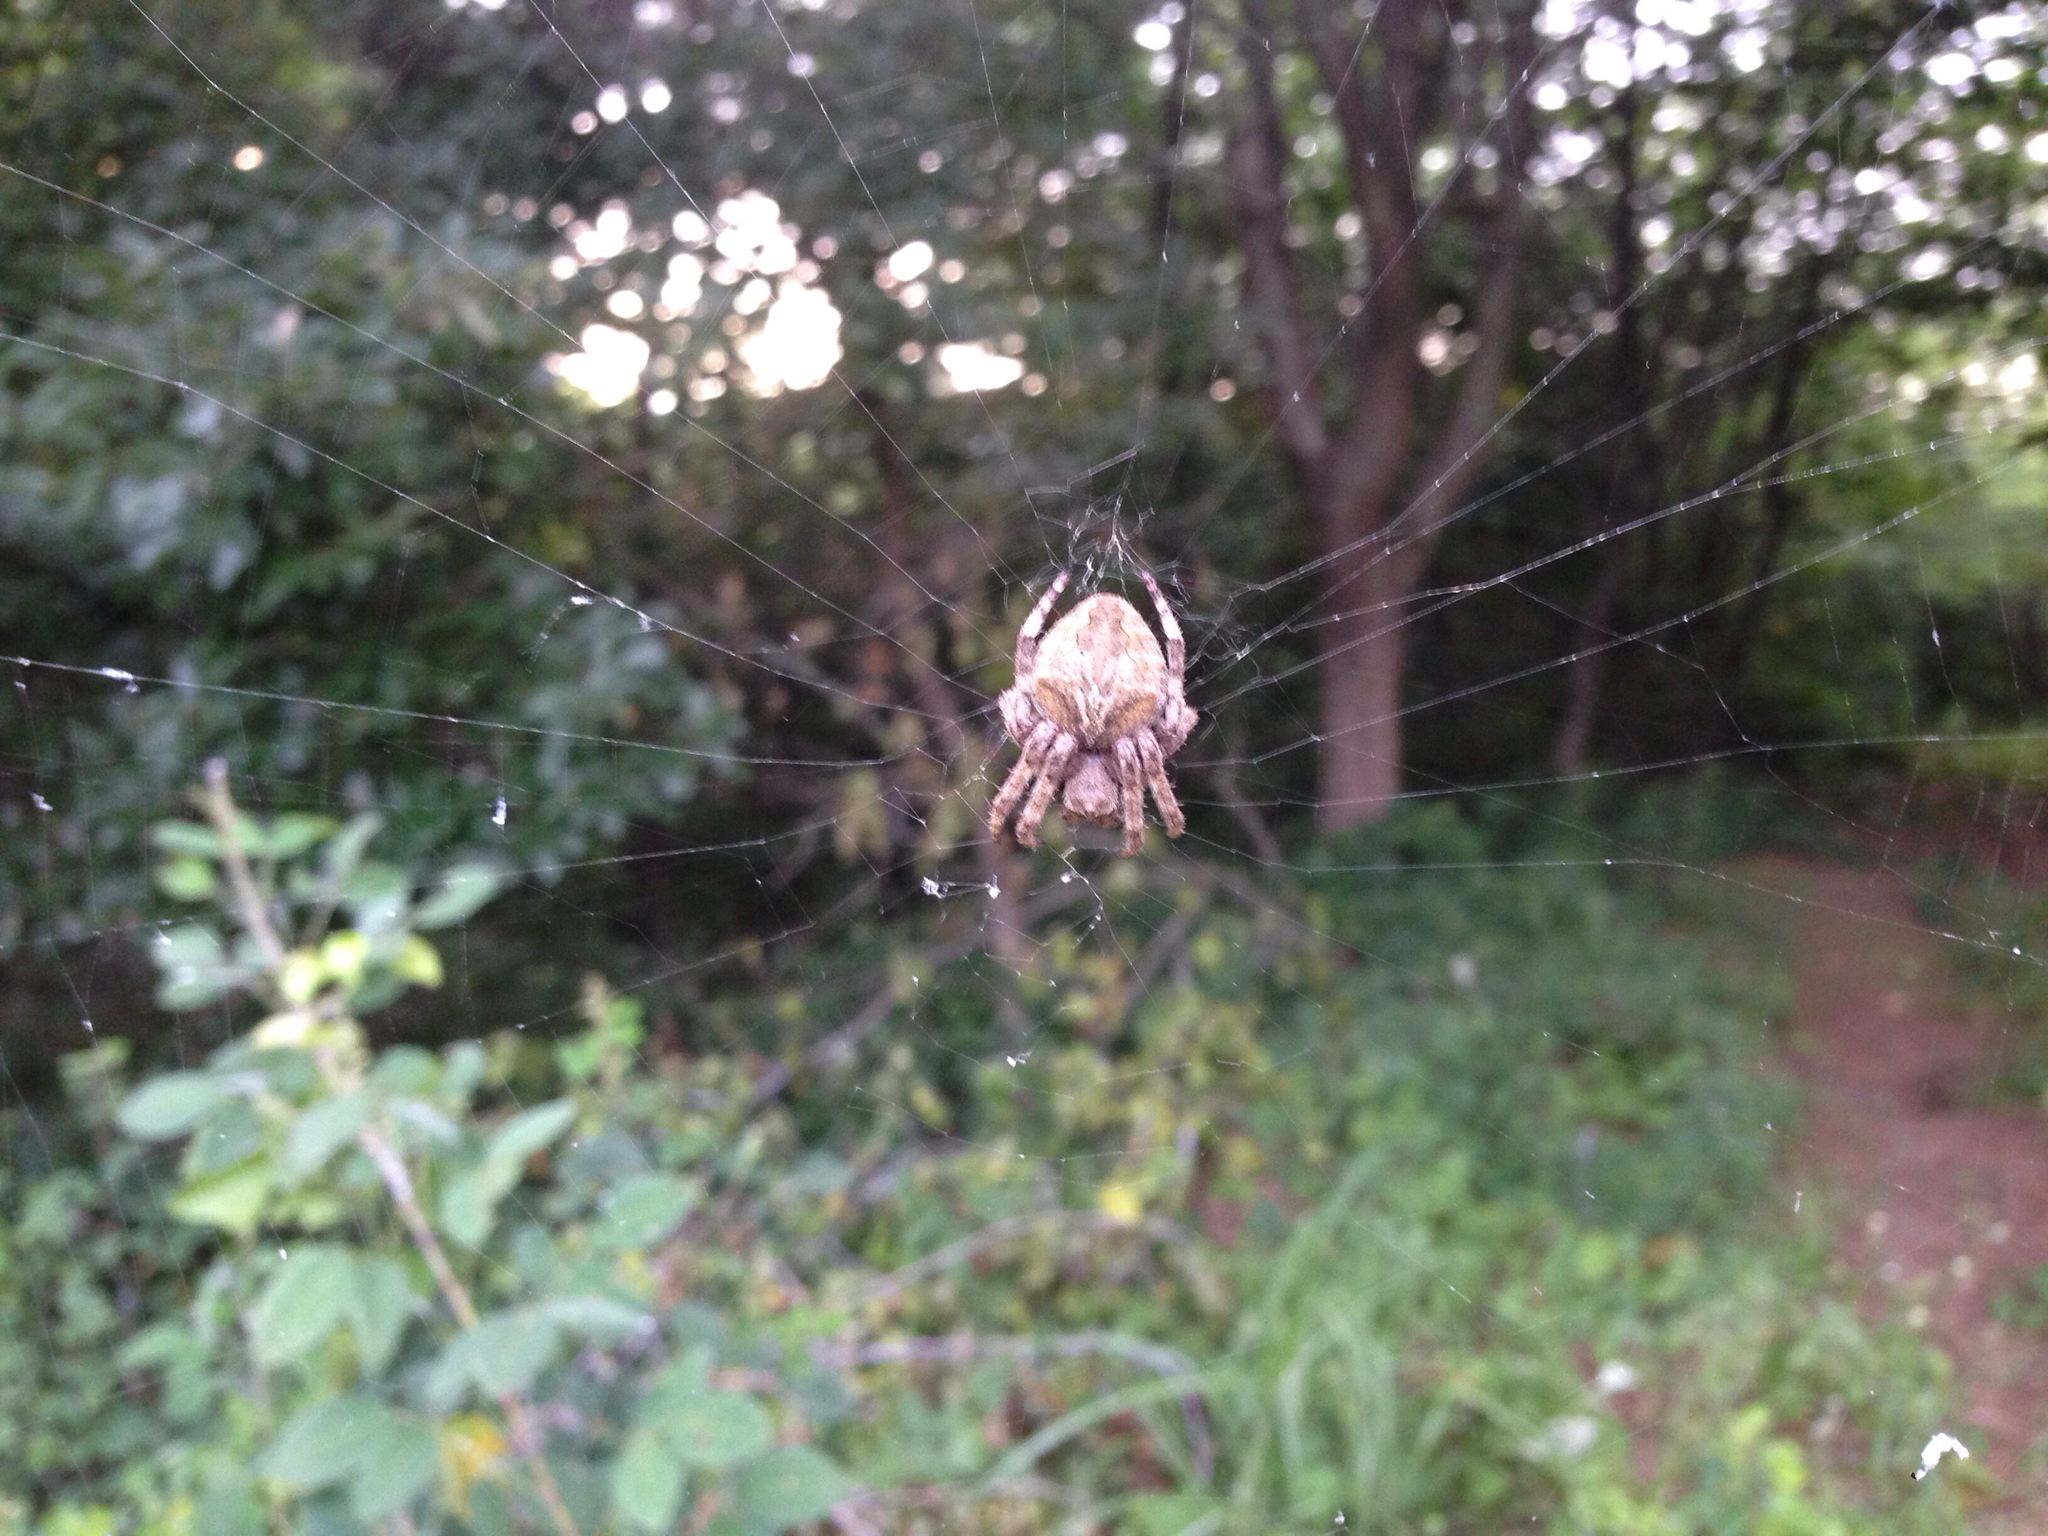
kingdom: Animalia
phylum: Arthropoda
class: Arachnida
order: Araneae
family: Araneidae
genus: Araneus
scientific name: Araneus ventricosus
